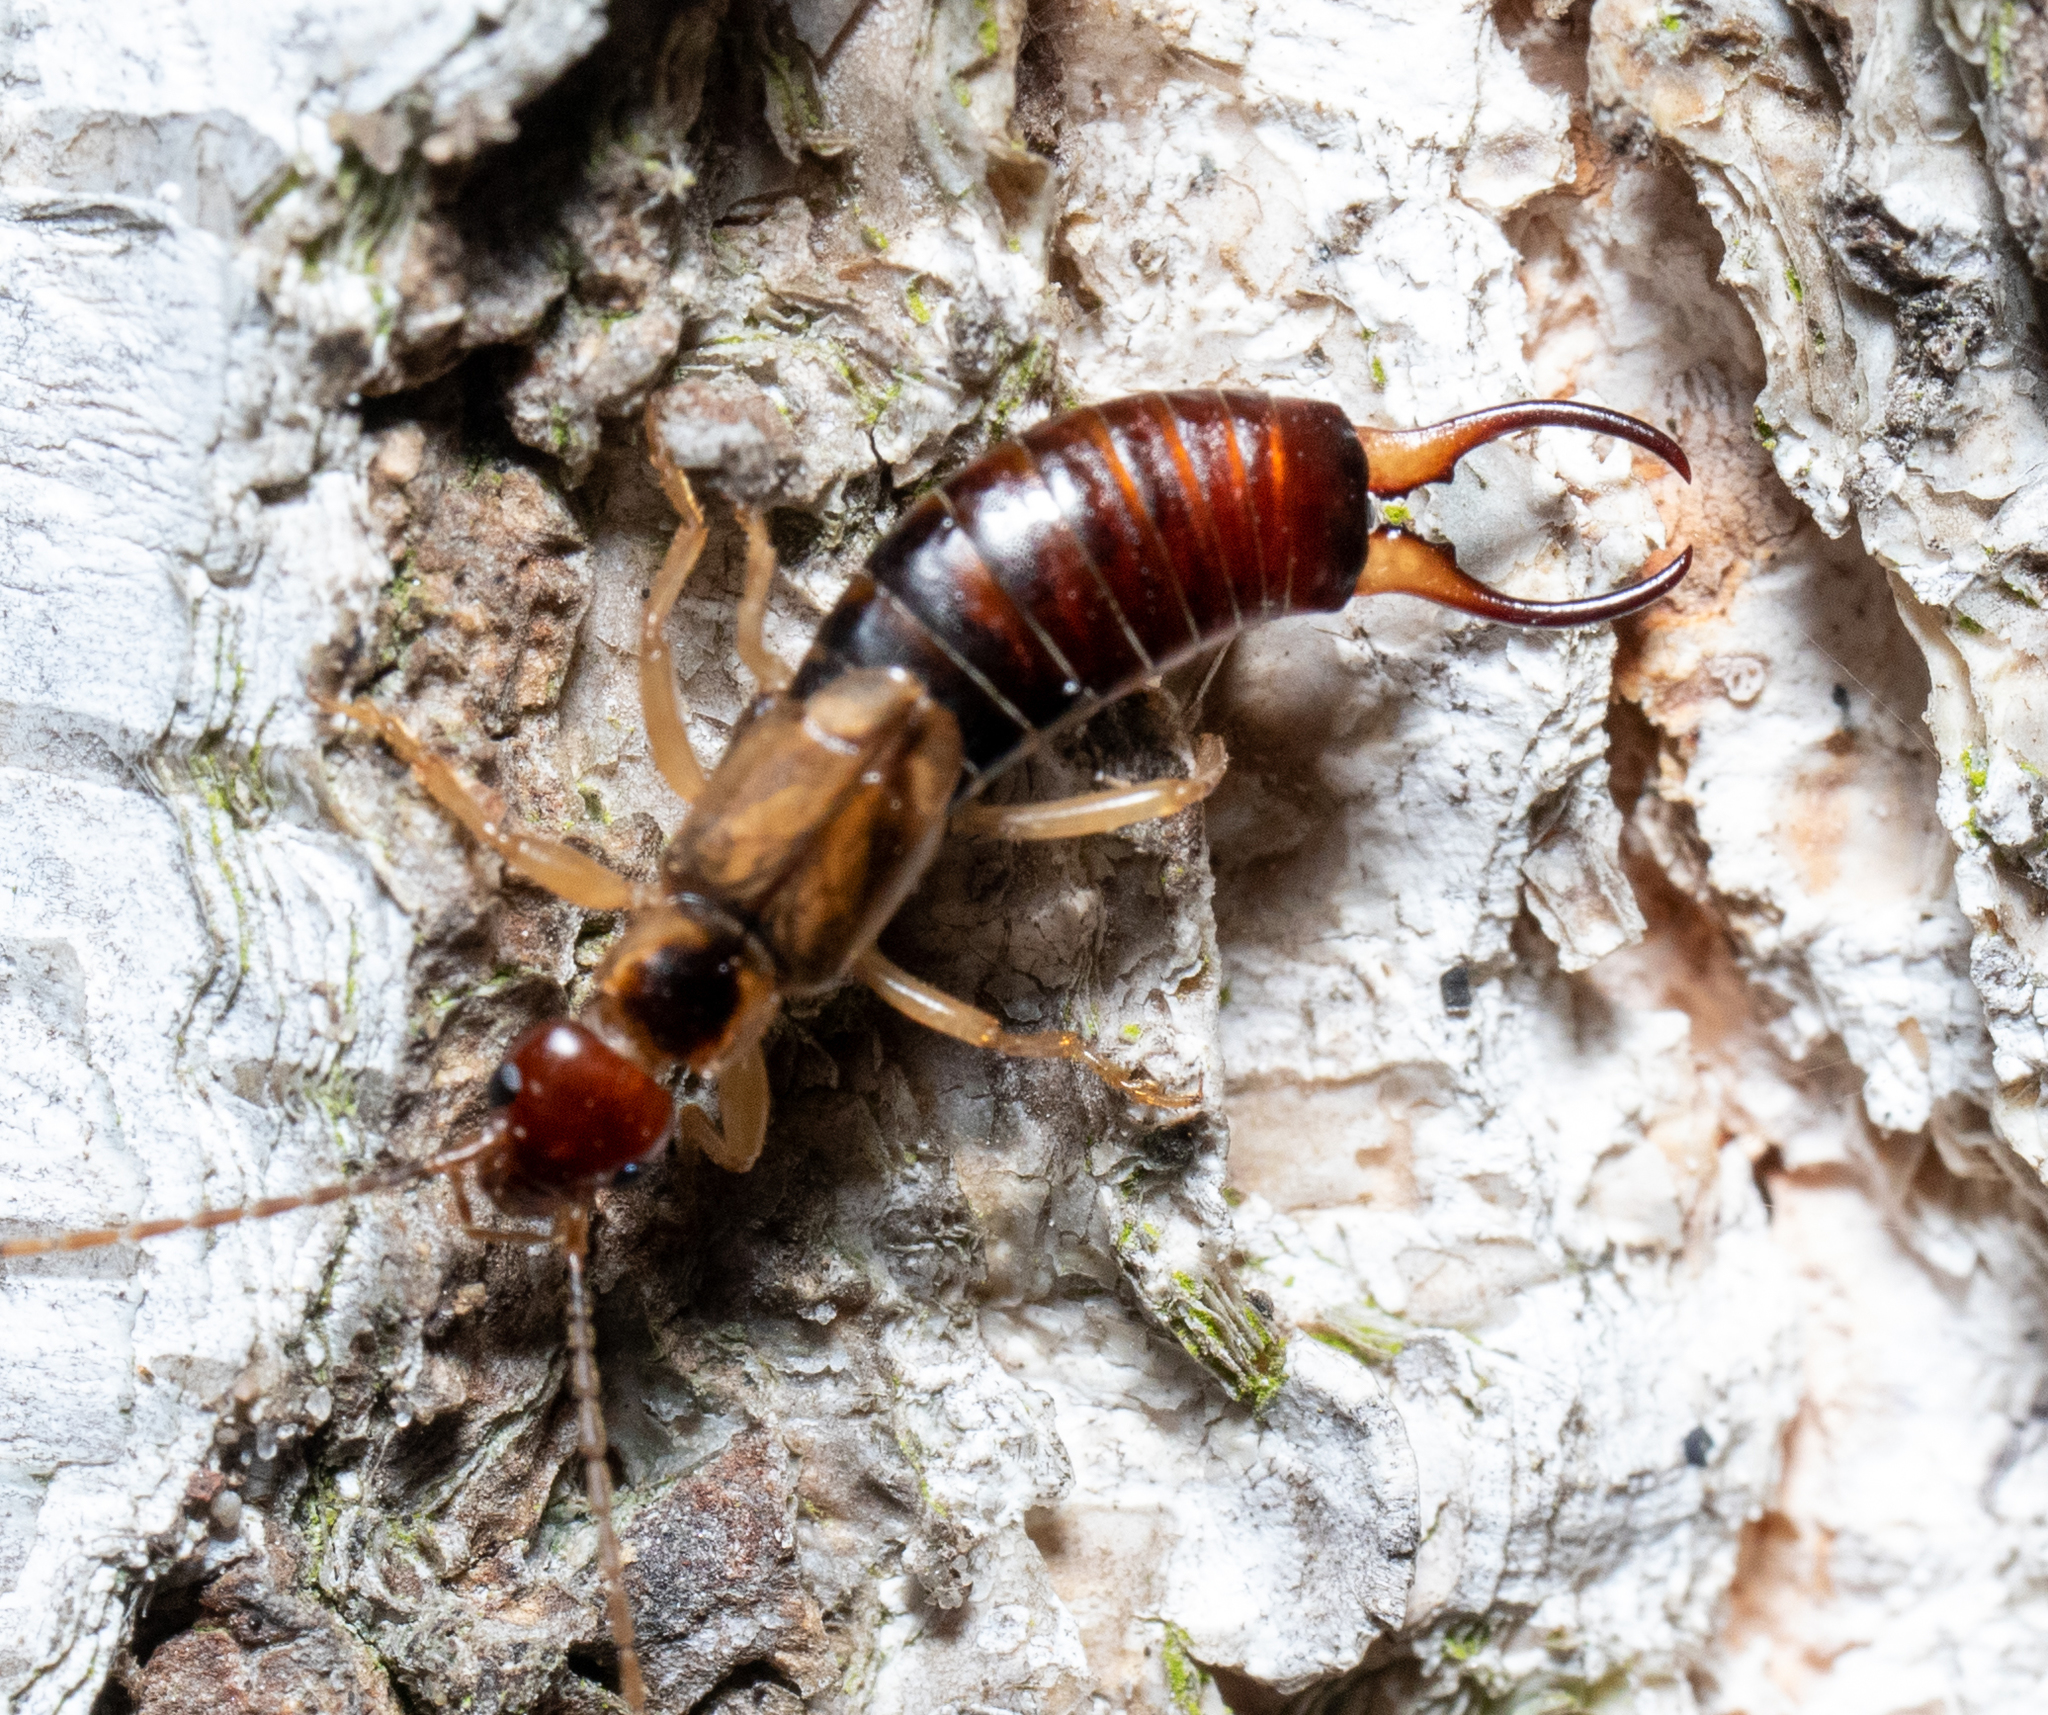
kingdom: Animalia
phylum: Arthropoda
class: Insecta
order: Dermaptera
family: Forficulidae
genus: Forficula
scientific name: Forficula
